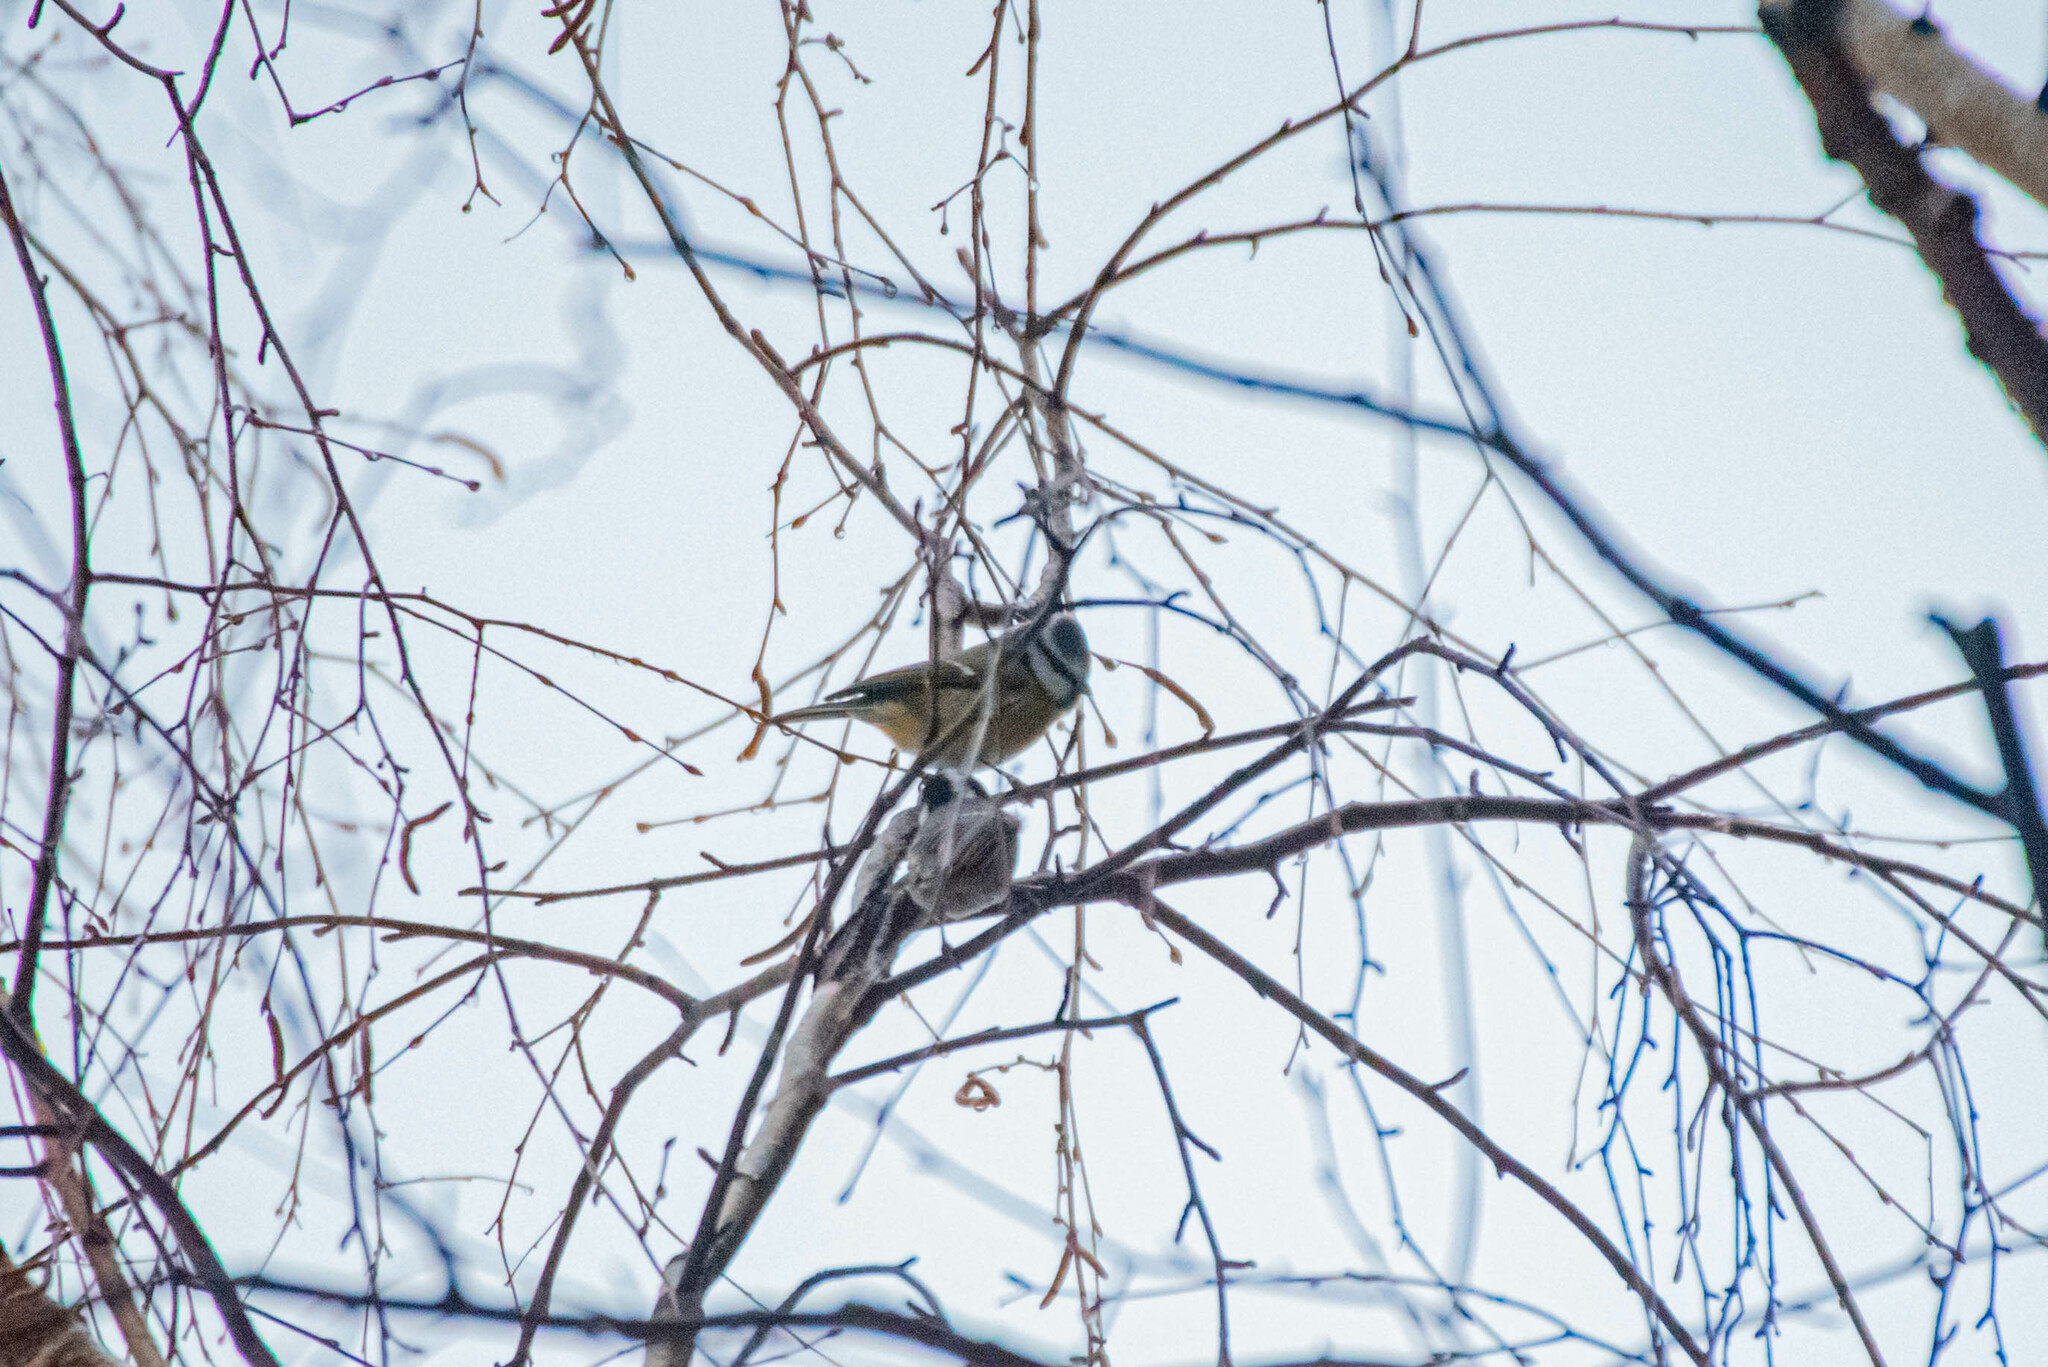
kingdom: Animalia
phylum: Chordata
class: Aves
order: Passeriformes
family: Paridae
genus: Cyanistes
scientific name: Cyanistes caeruleus
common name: Eurasian blue tit
